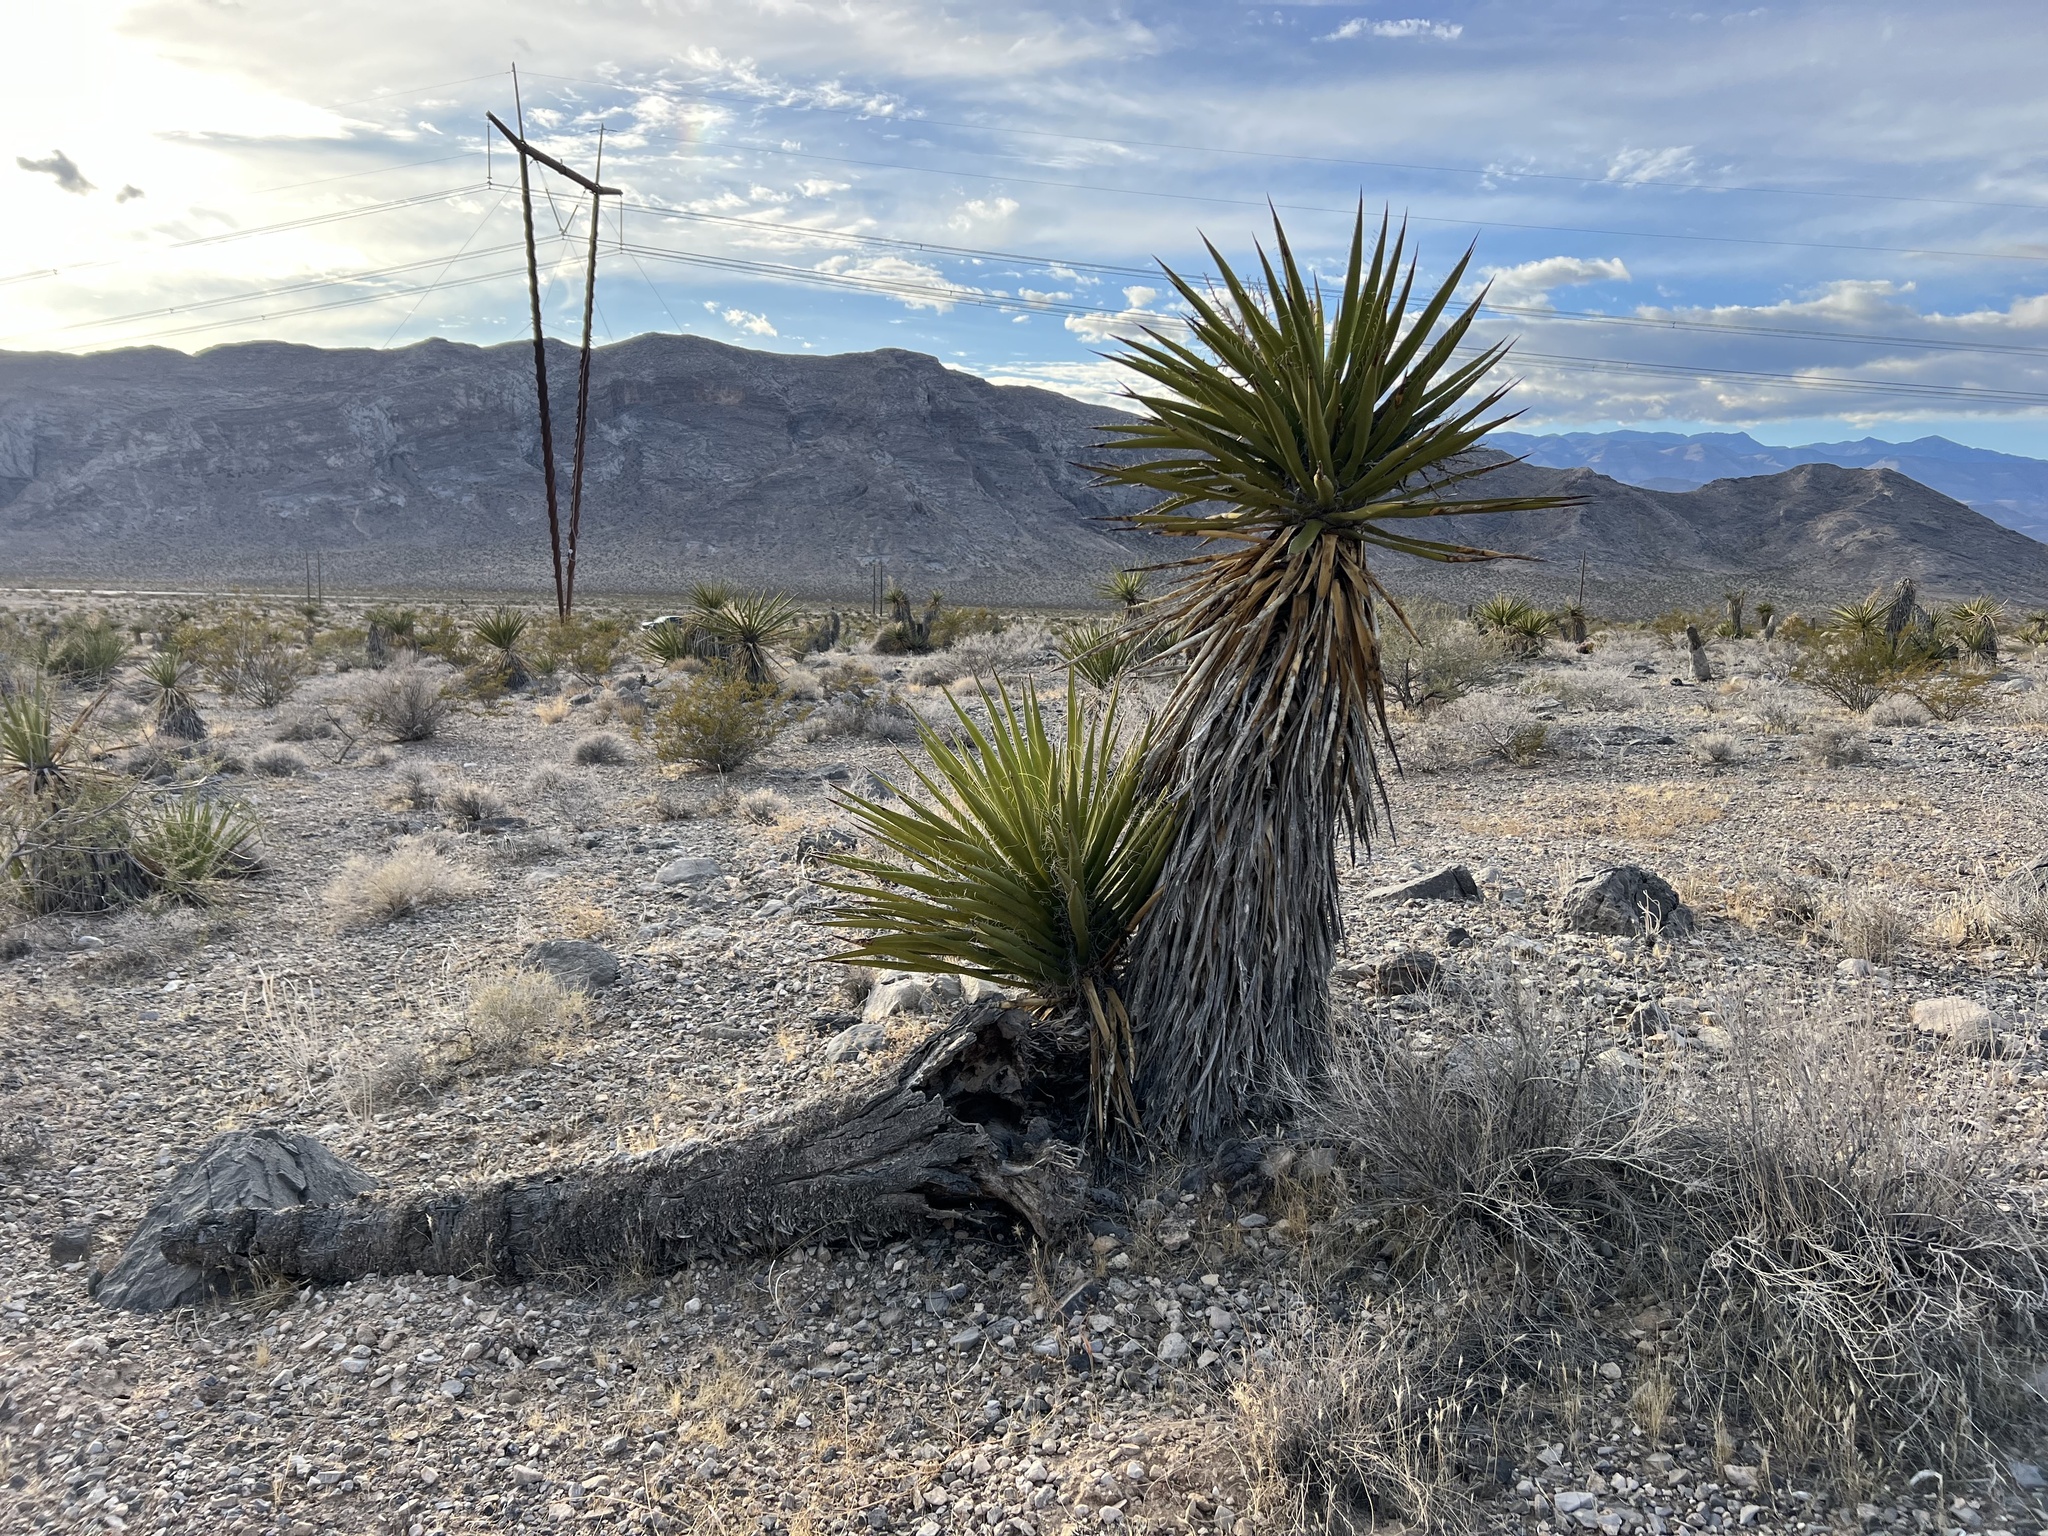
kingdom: Plantae
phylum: Tracheophyta
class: Liliopsida
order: Asparagales
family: Asparagaceae
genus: Yucca
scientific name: Yucca schidigera
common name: Mojave yucca
